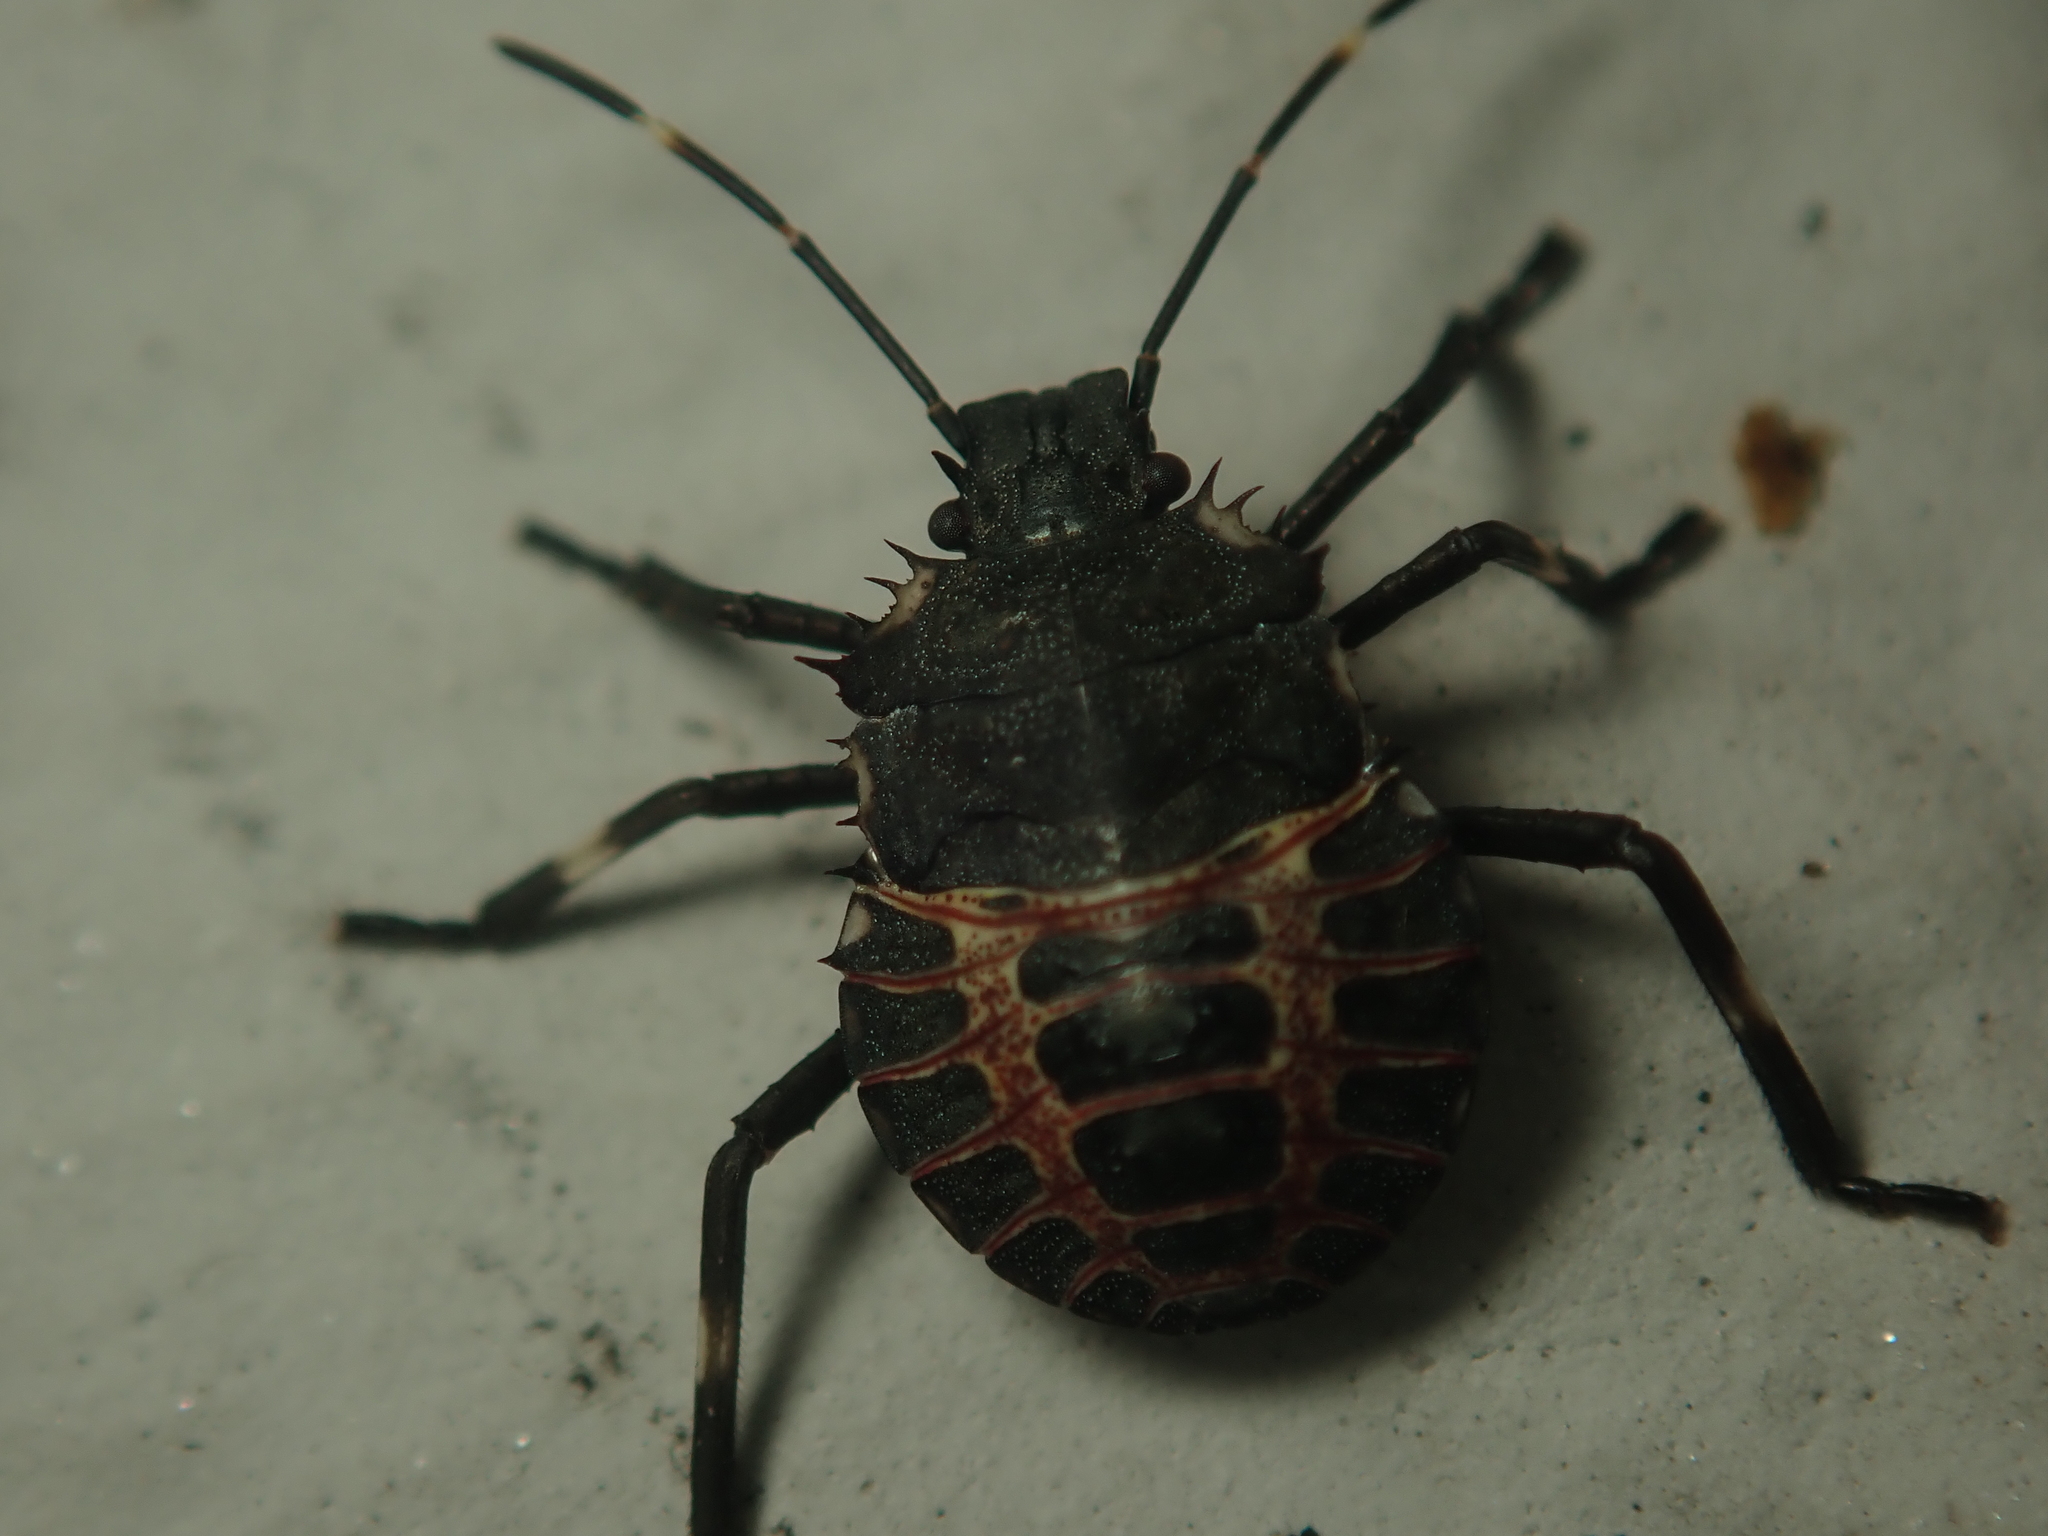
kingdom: Animalia
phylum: Arthropoda
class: Insecta
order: Hemiptera
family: Pentatomidae
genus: Halyomorpha
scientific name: Halyomorpha halys
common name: Brown marmorated stink bug
